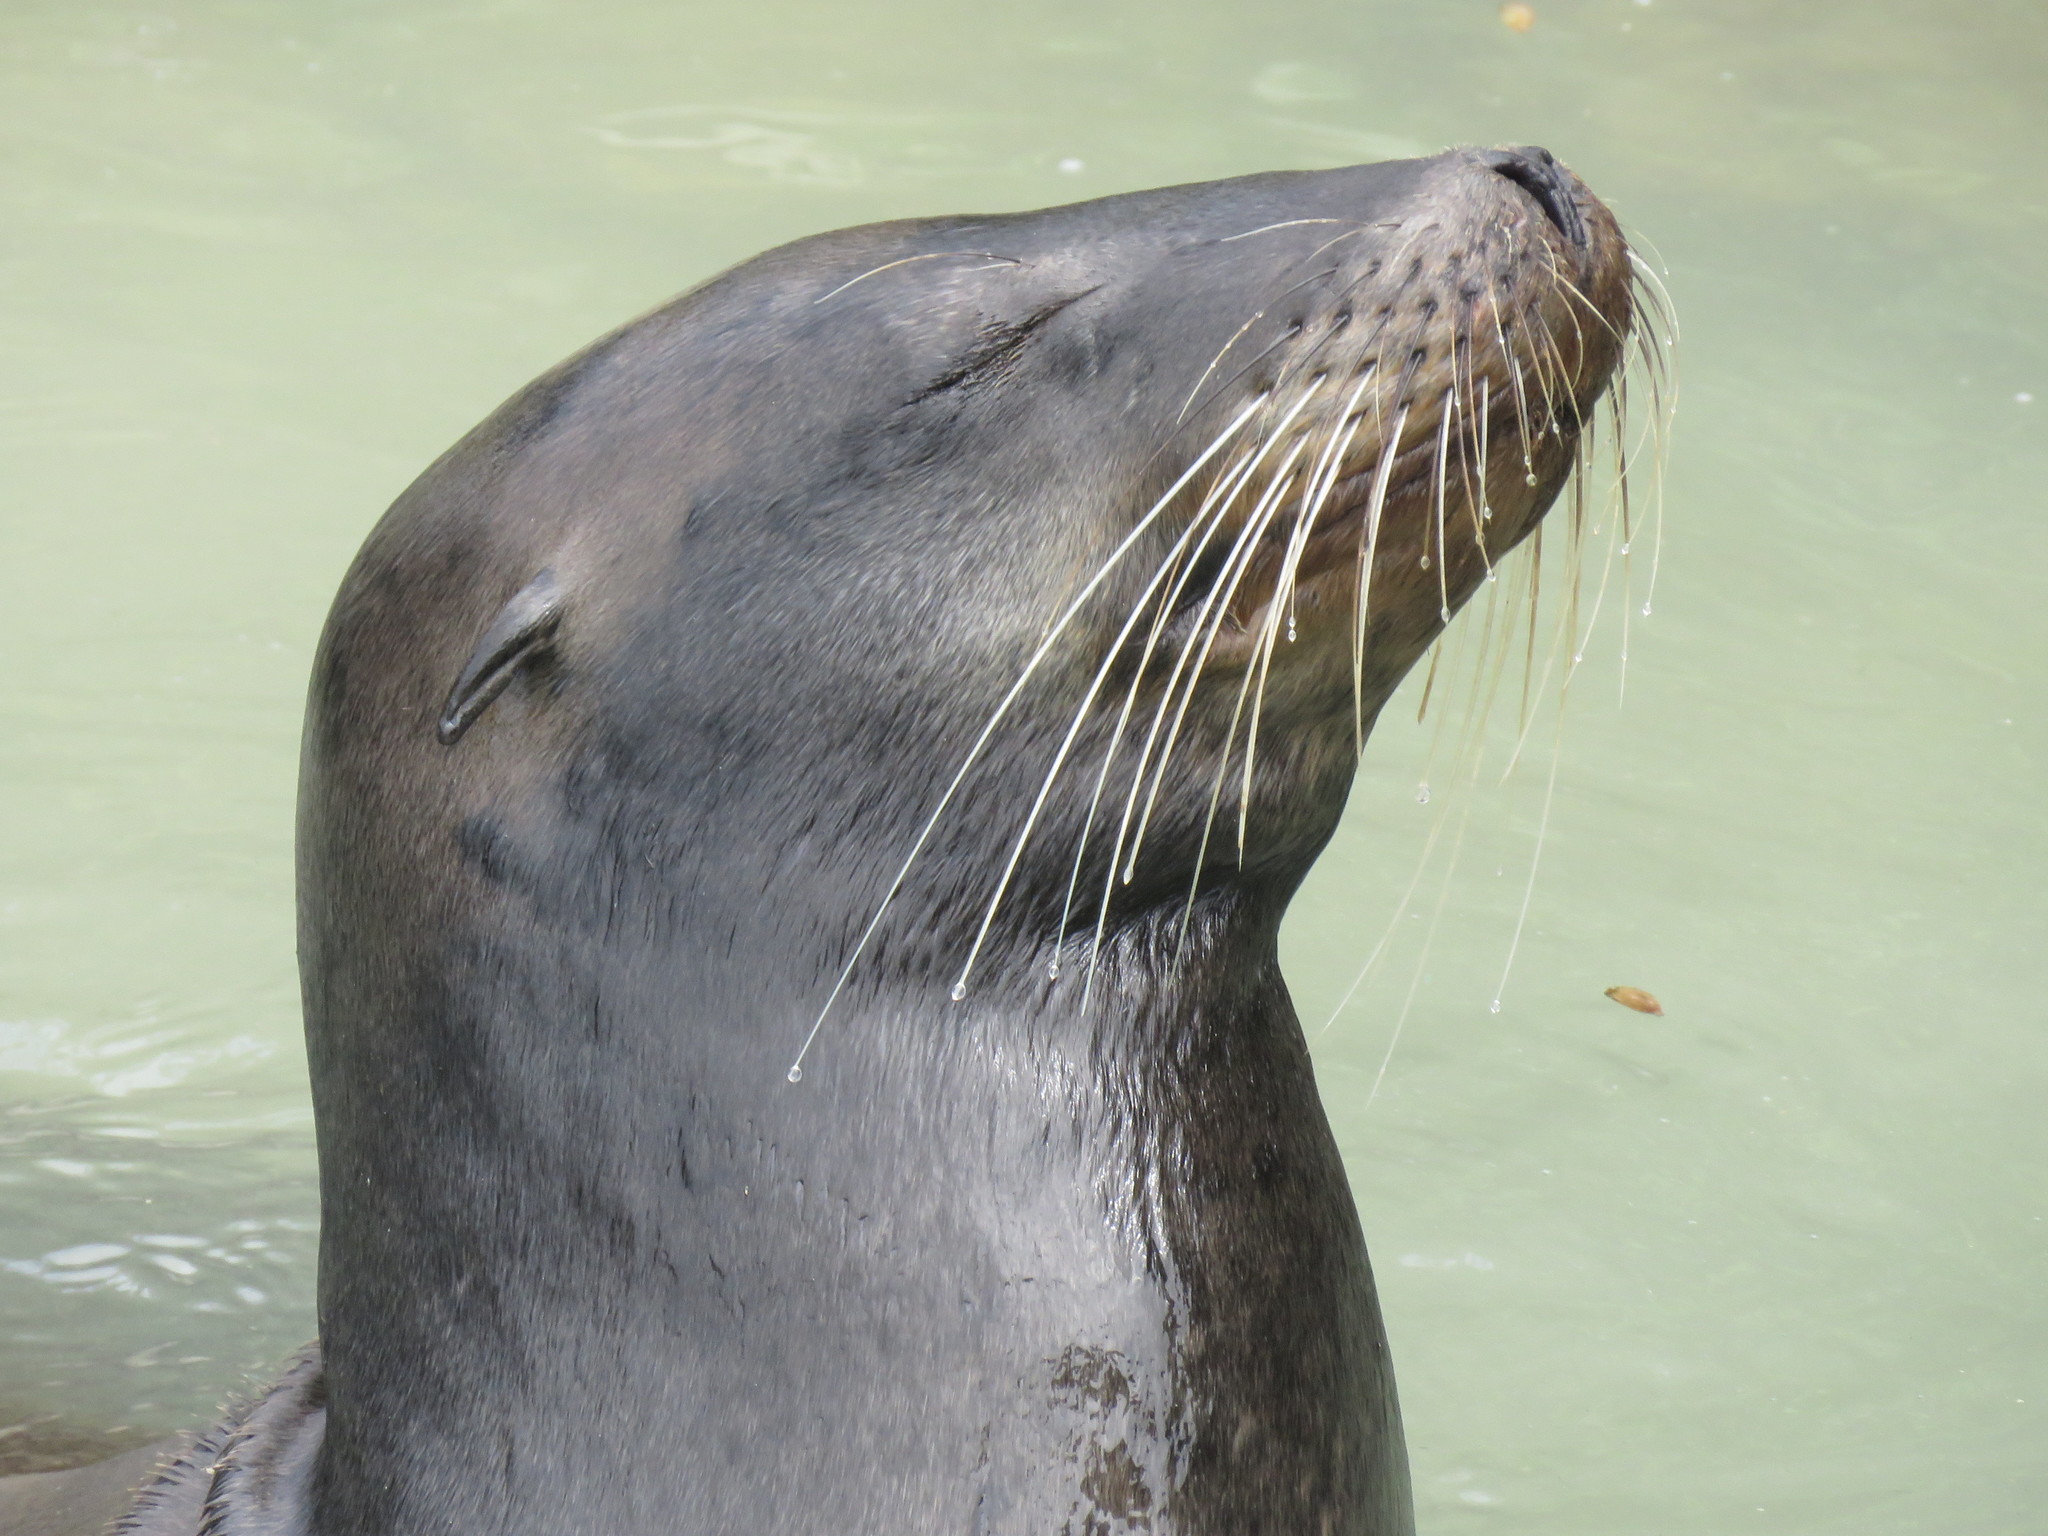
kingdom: Animalia
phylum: Chordata
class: Mammalia
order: Carnivora
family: Otariidae
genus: Zalophus
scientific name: Zalophus wollebaeki
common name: Galapagos sea lion
